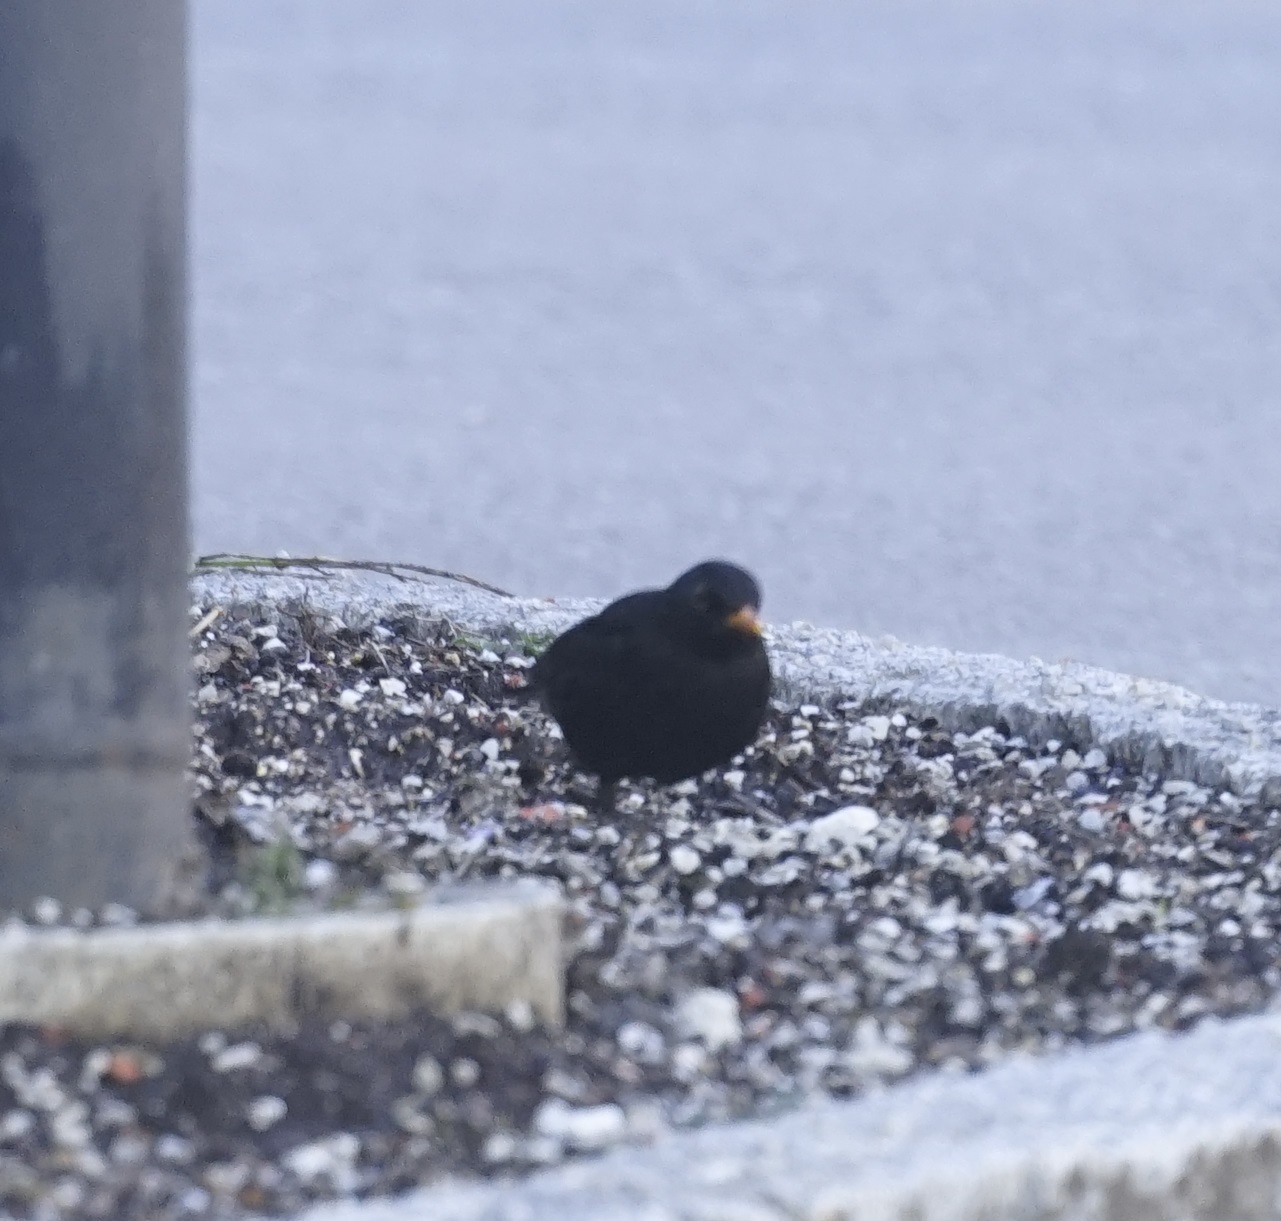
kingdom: Animalia
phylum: Chordata
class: Aves
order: Passeriformes
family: Turdidae
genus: Turdus
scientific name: Turdus merula
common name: Common blackbird
